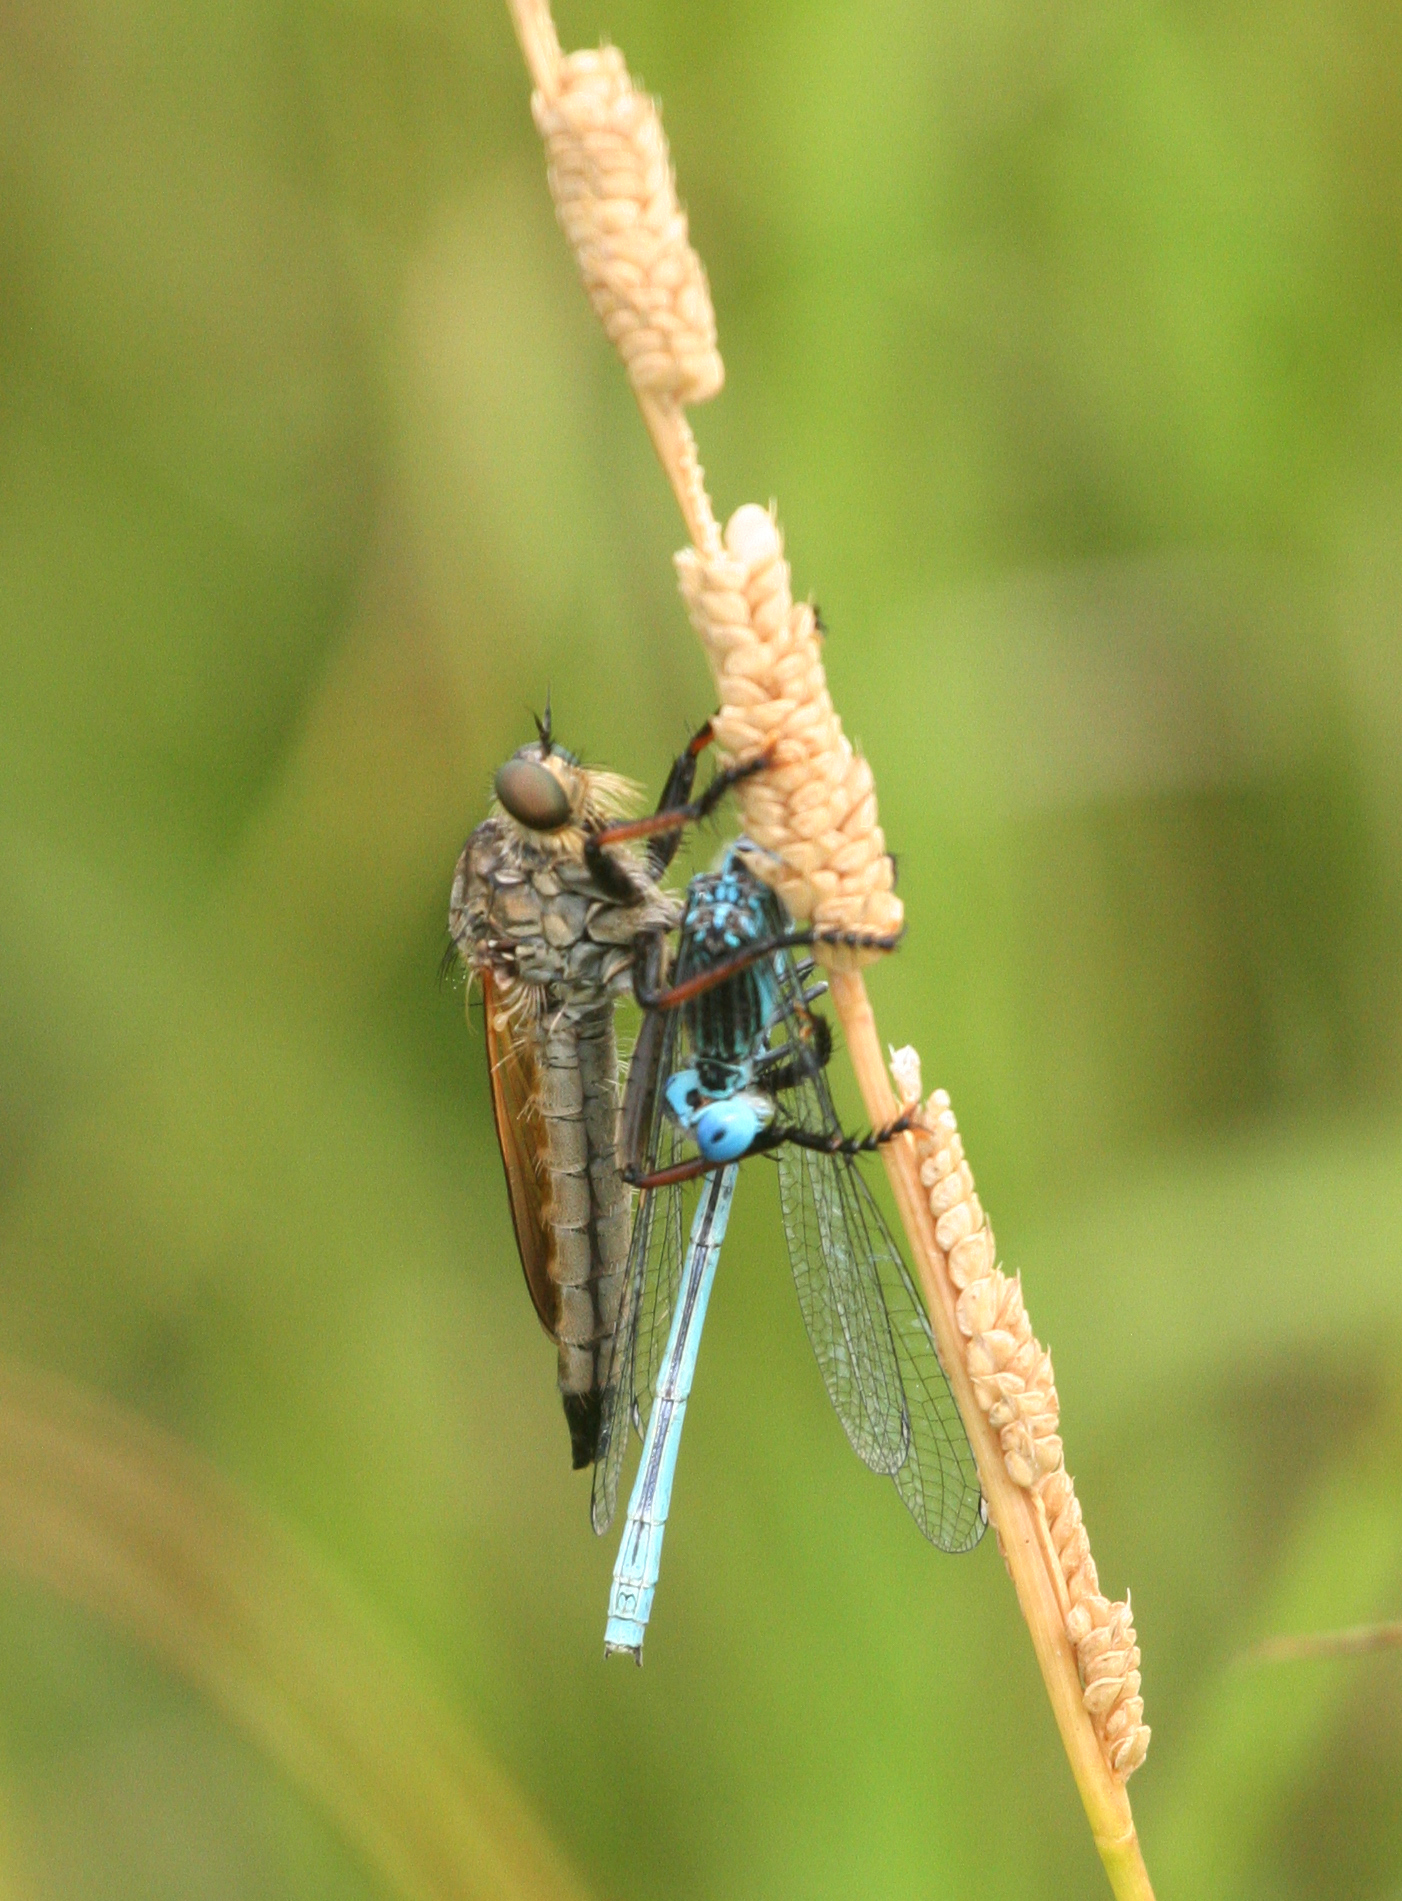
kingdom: Animalia
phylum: Arthropoda
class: Insecta
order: Odonata
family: Coenagrionidae
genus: Paracercion
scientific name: Paracercion plagiosum
